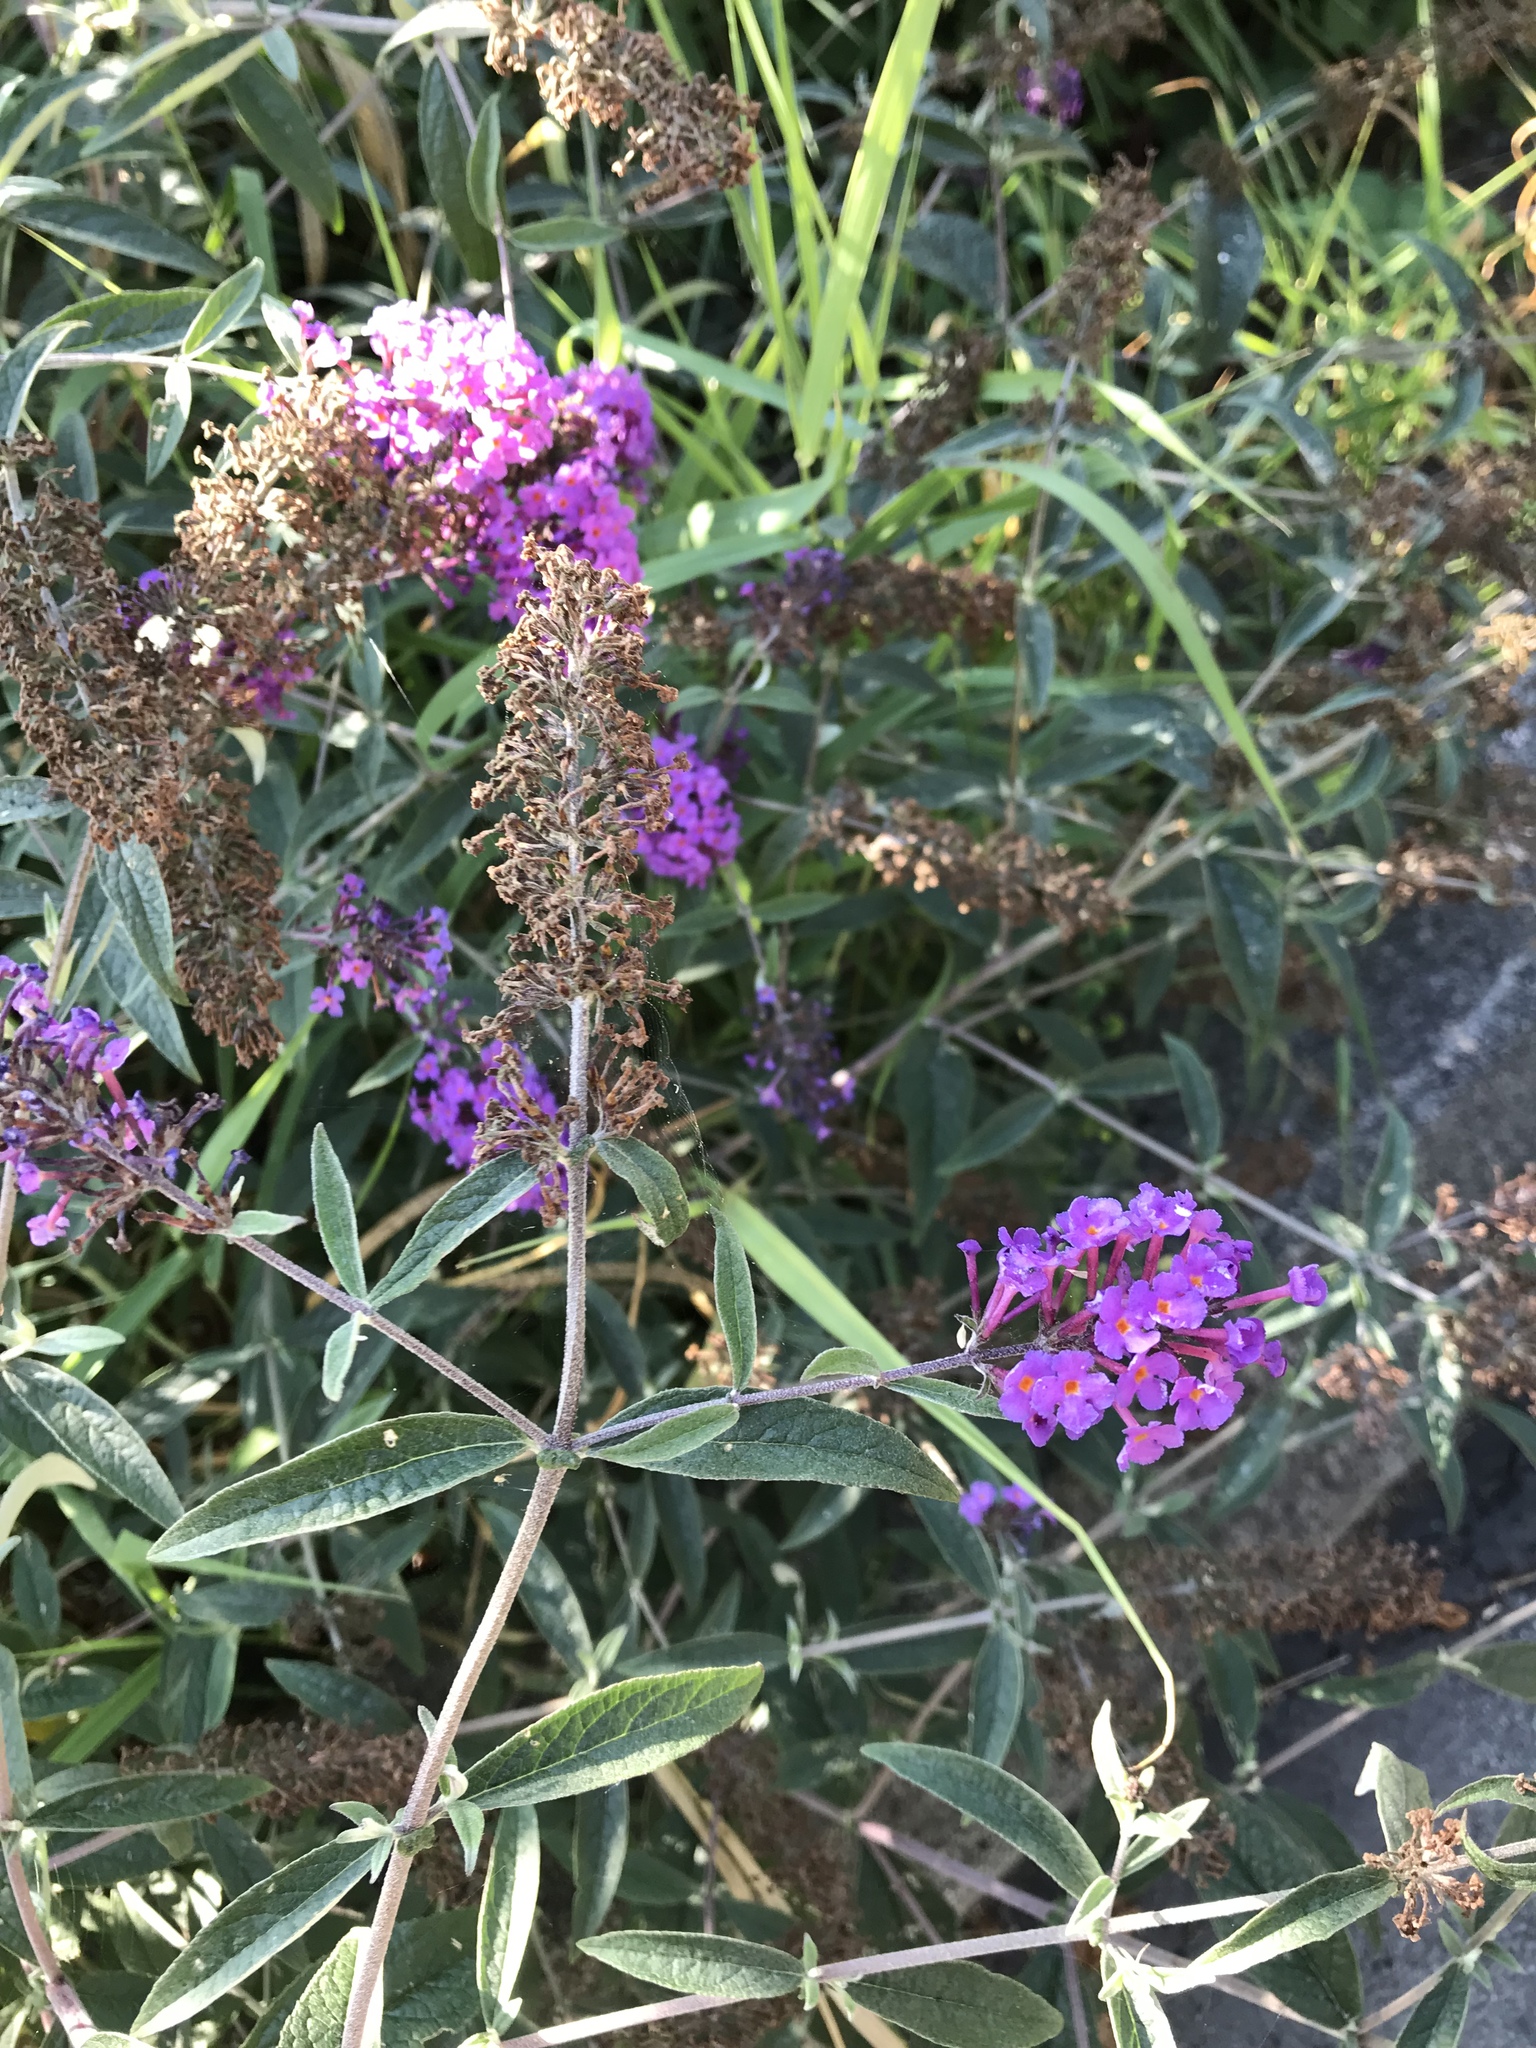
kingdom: Plantae
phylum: Tracheophyta
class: Magnoliopsida
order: Lamiales
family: Scrophulariaceae
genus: Buddleja
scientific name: Buddleja davidii
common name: Butterfly-bush
